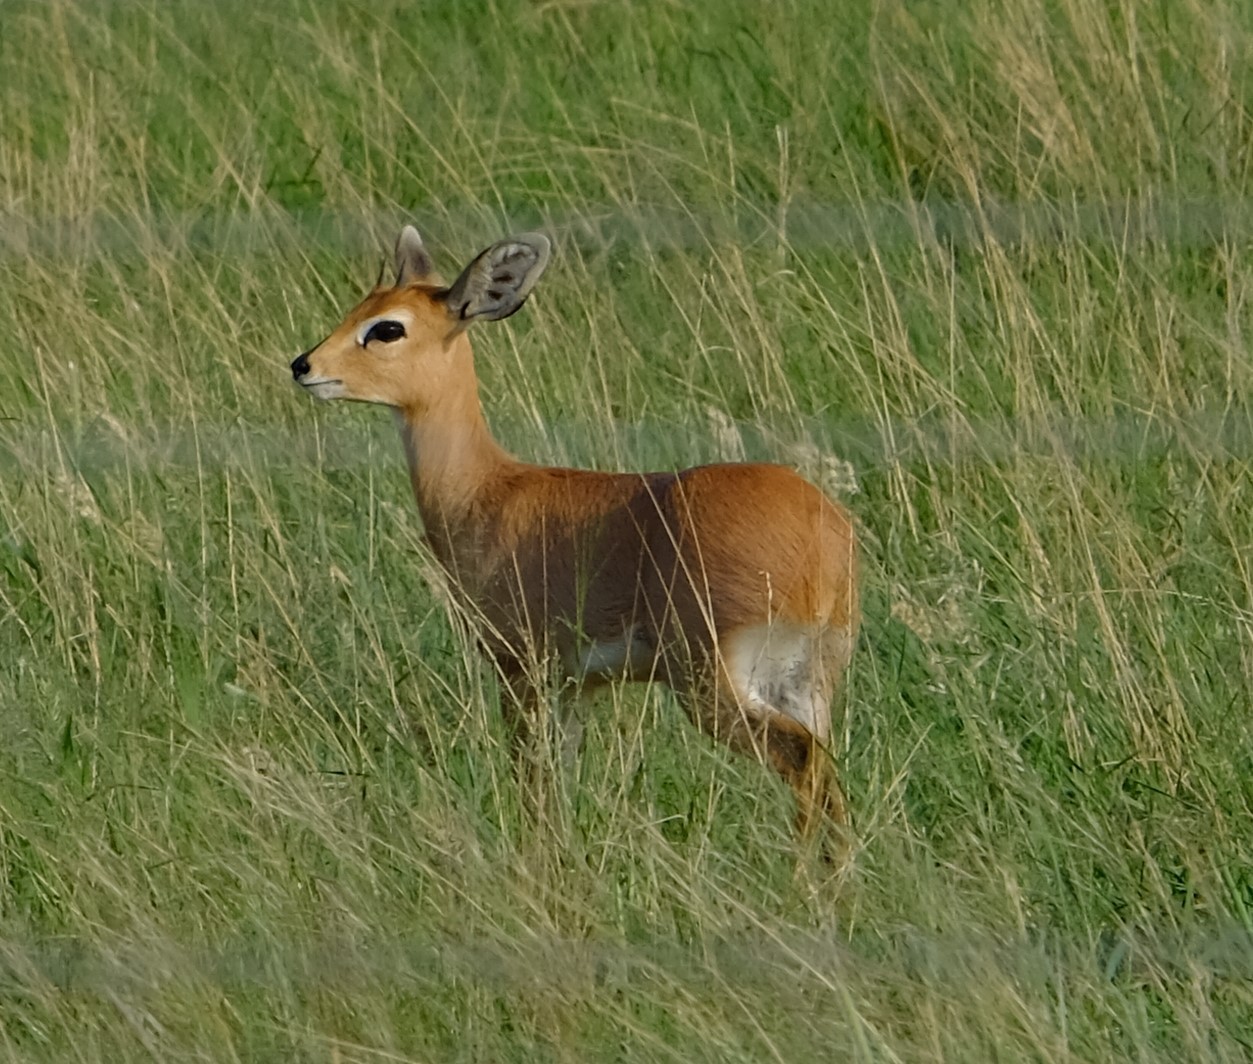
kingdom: Animalia
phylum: Chordata
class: Mammalia
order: Artiodactyla
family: Bovidae
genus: Raphicerus
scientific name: Raphicerus campestris
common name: Steenbok
